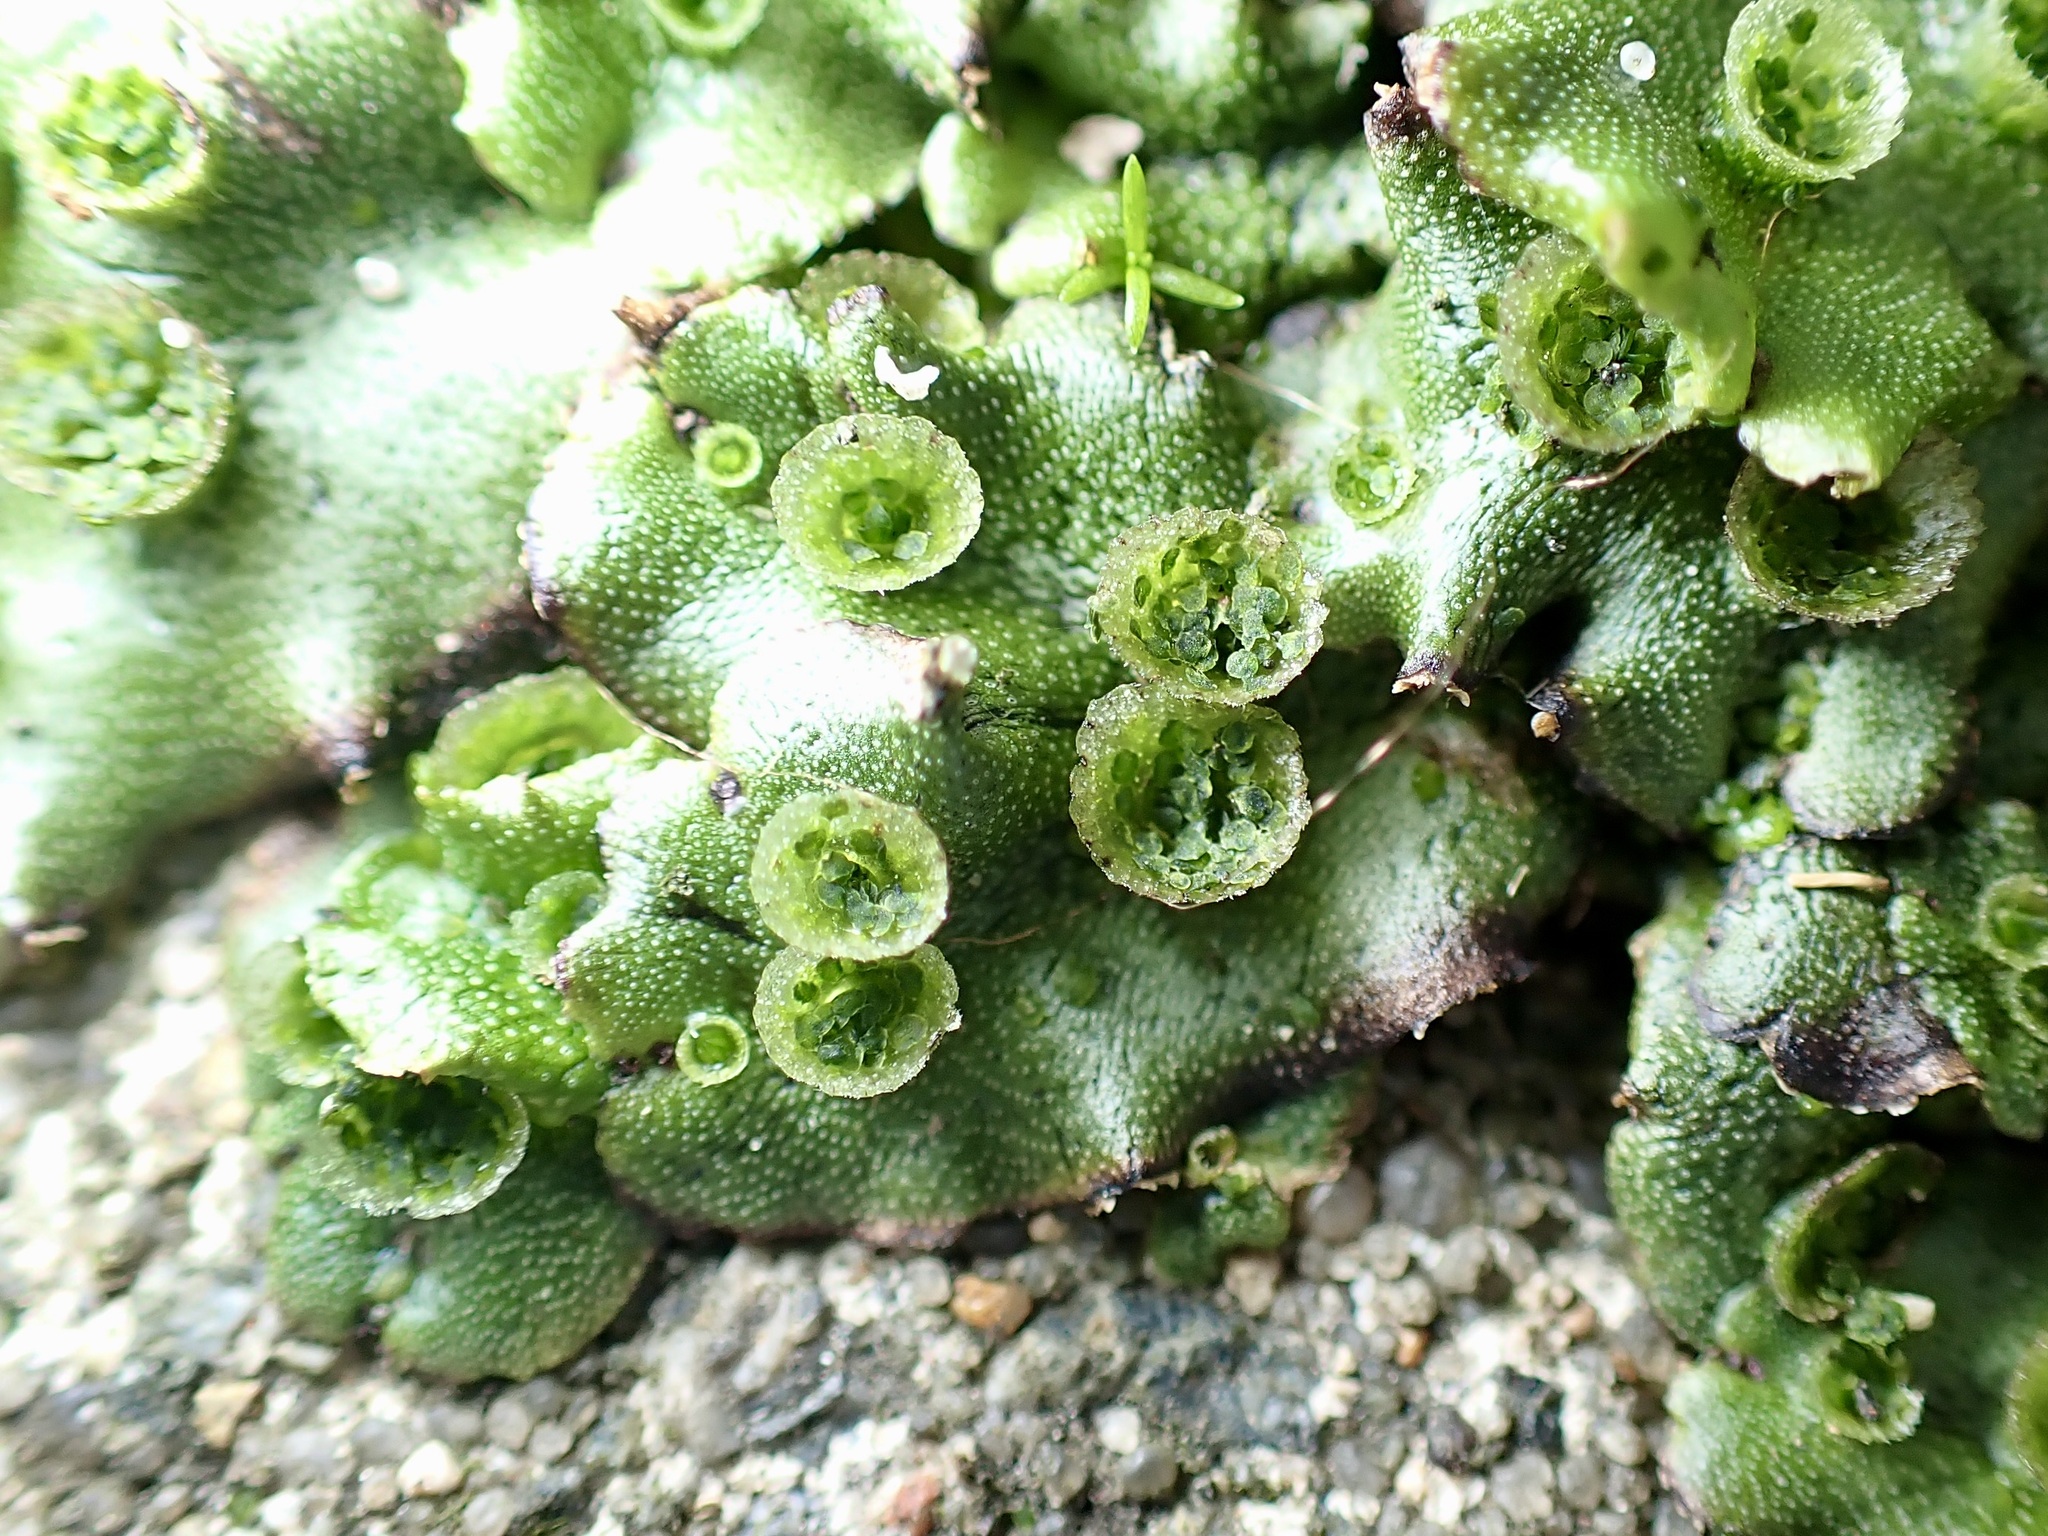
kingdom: Plantae
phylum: Marchantiophyta
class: Marchantiopsida
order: Marchantiales
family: Marchantiaceae
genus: Marchantia
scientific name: Marchantia polymorpha
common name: Common liverwort
